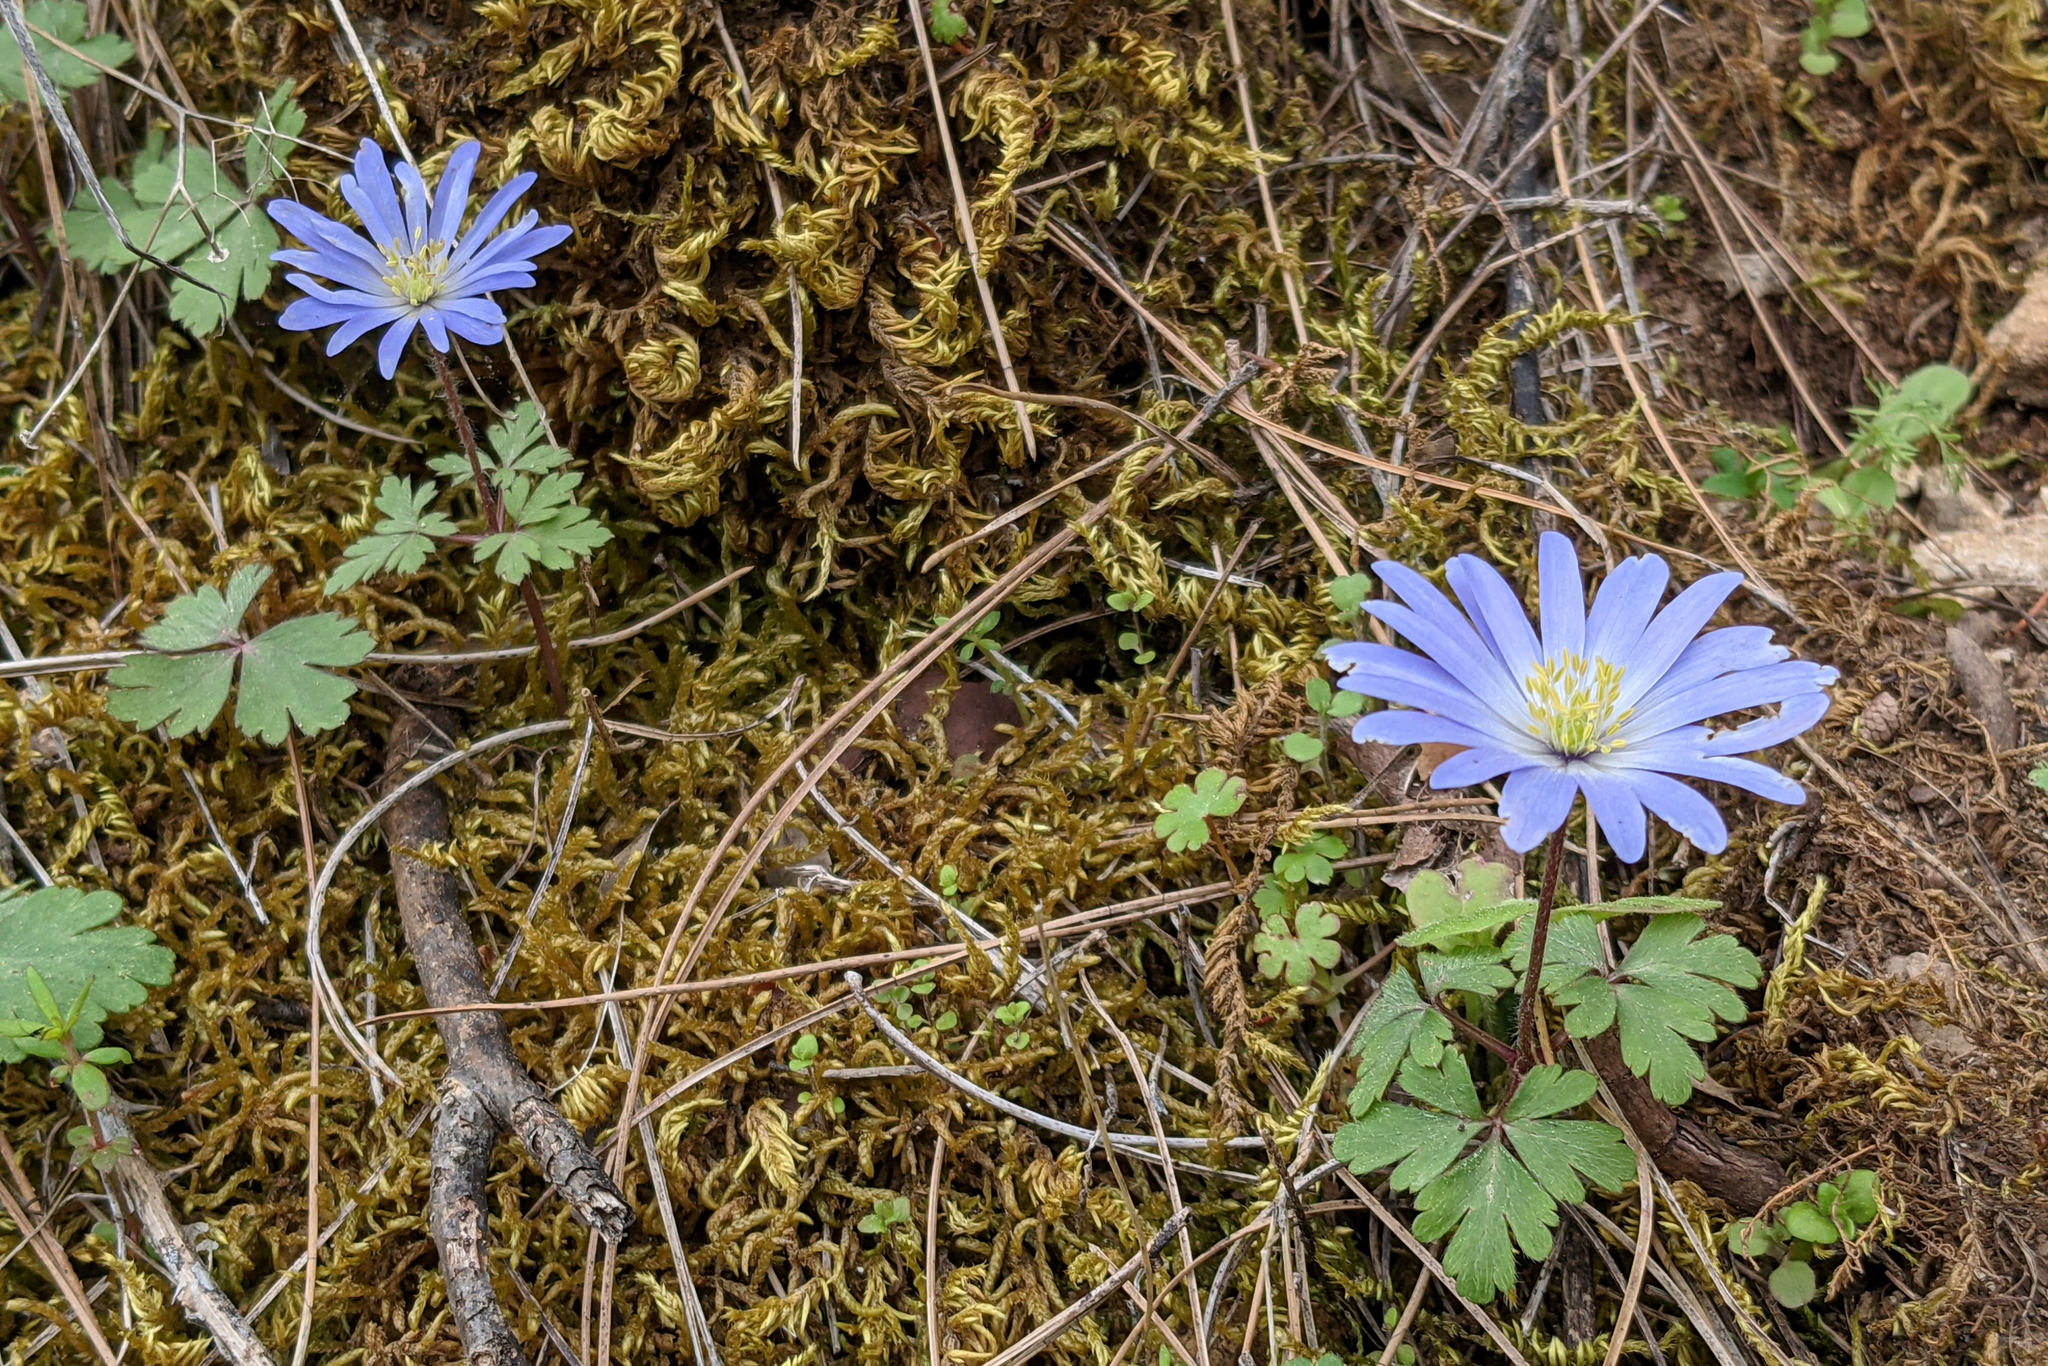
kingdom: Plantae
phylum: Tracheophyta
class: Magnoliopsida
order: Ranunculales
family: Ranunculaceae
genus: Anemone
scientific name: Anemone blanda
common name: Balkan anemone
